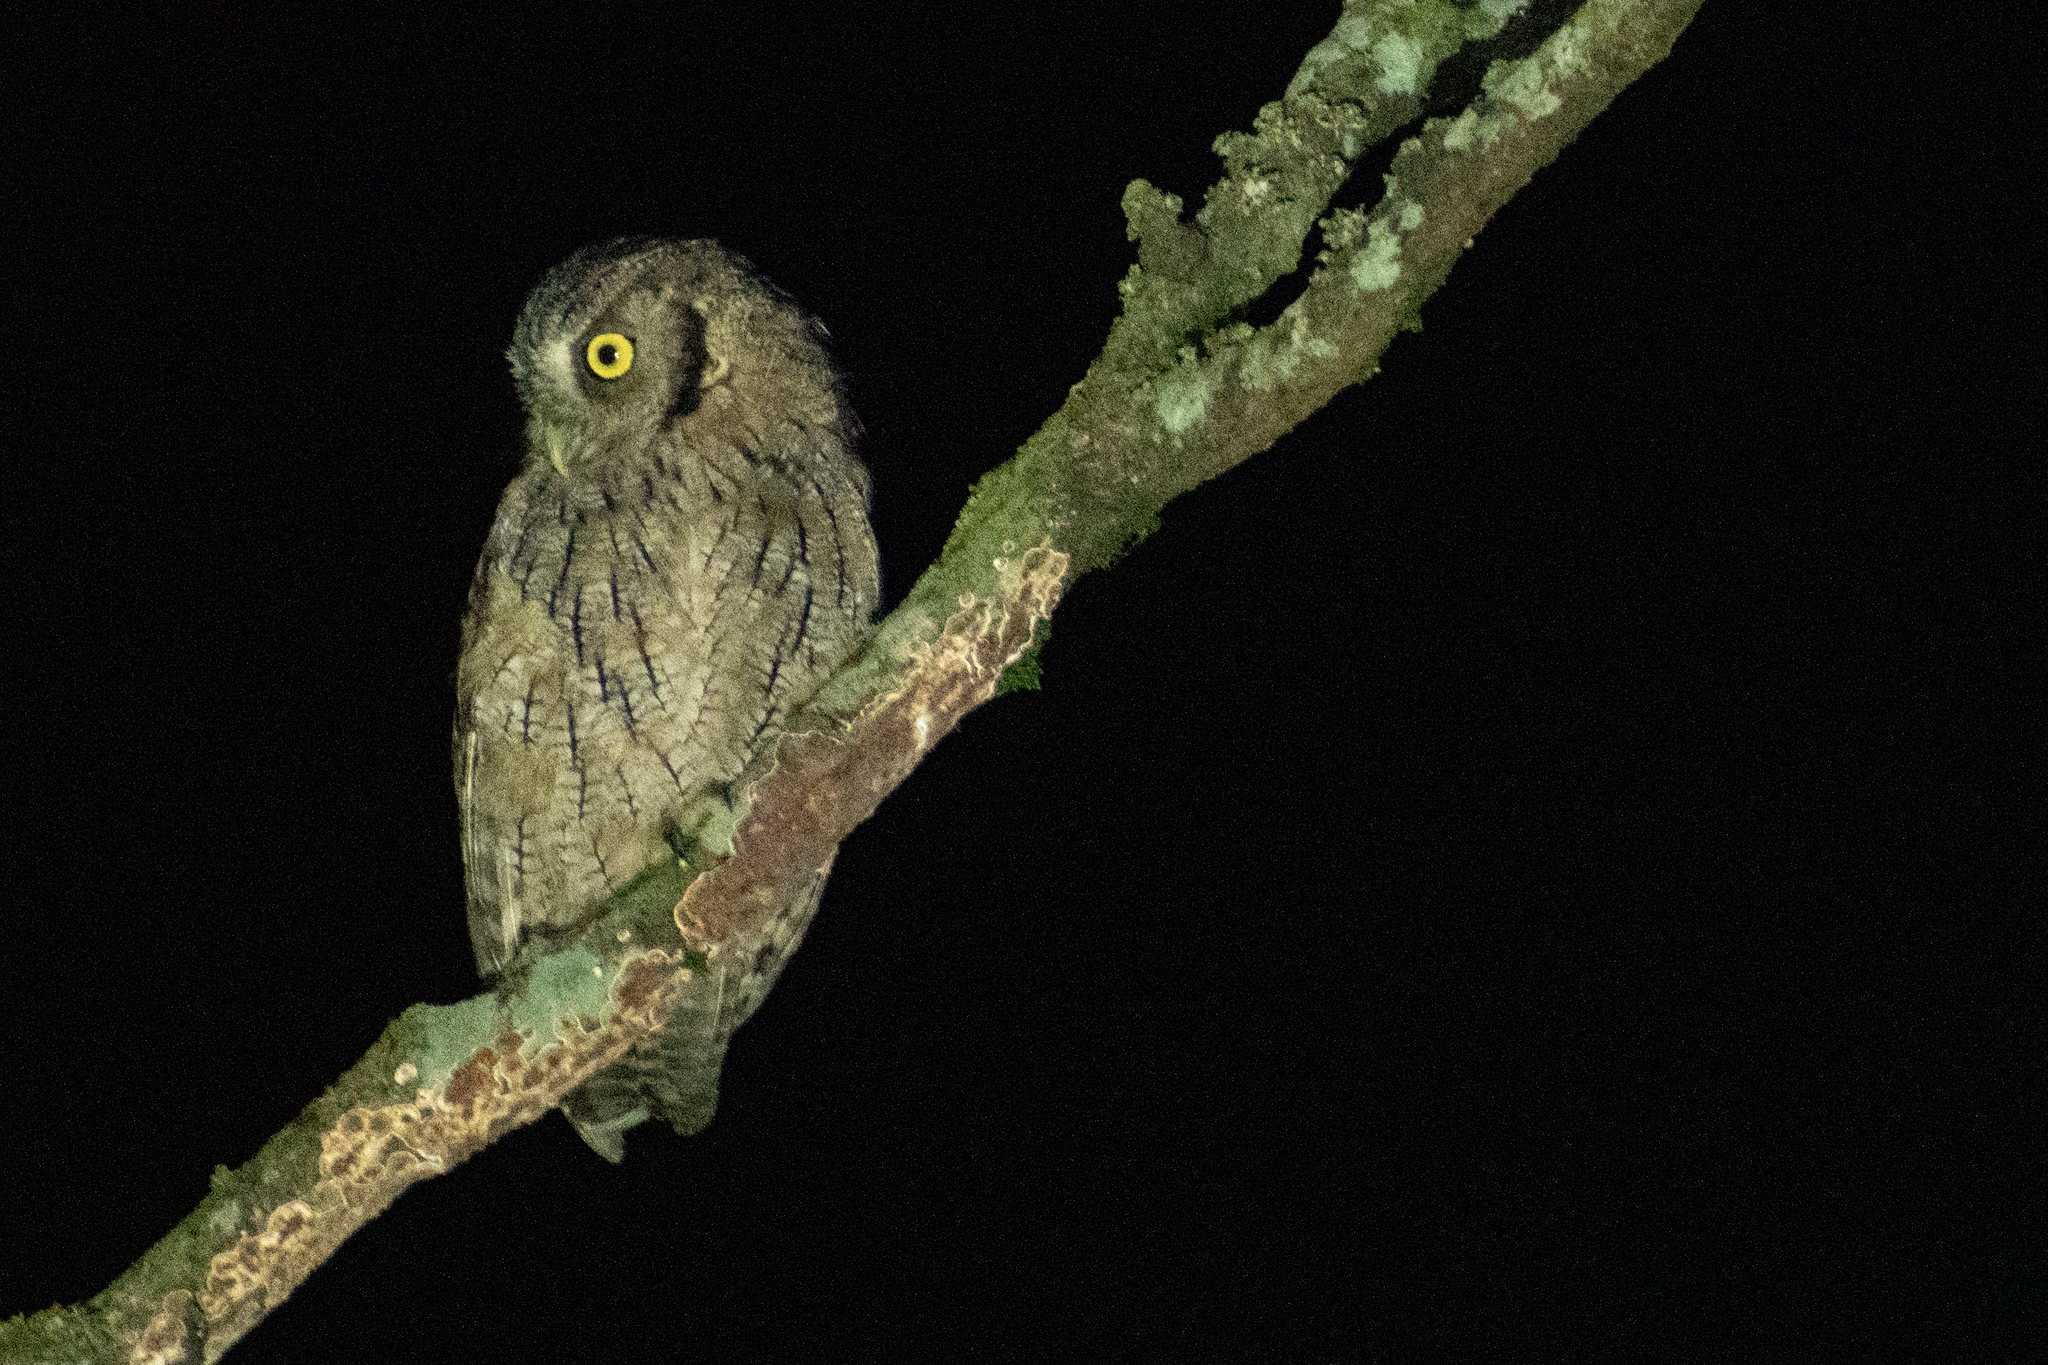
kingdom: Animalia
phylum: Chordata
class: Aves
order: Strigiformes
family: Strigidae
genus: Megascops
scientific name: Megascops choliba
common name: Tropical screech-owl
